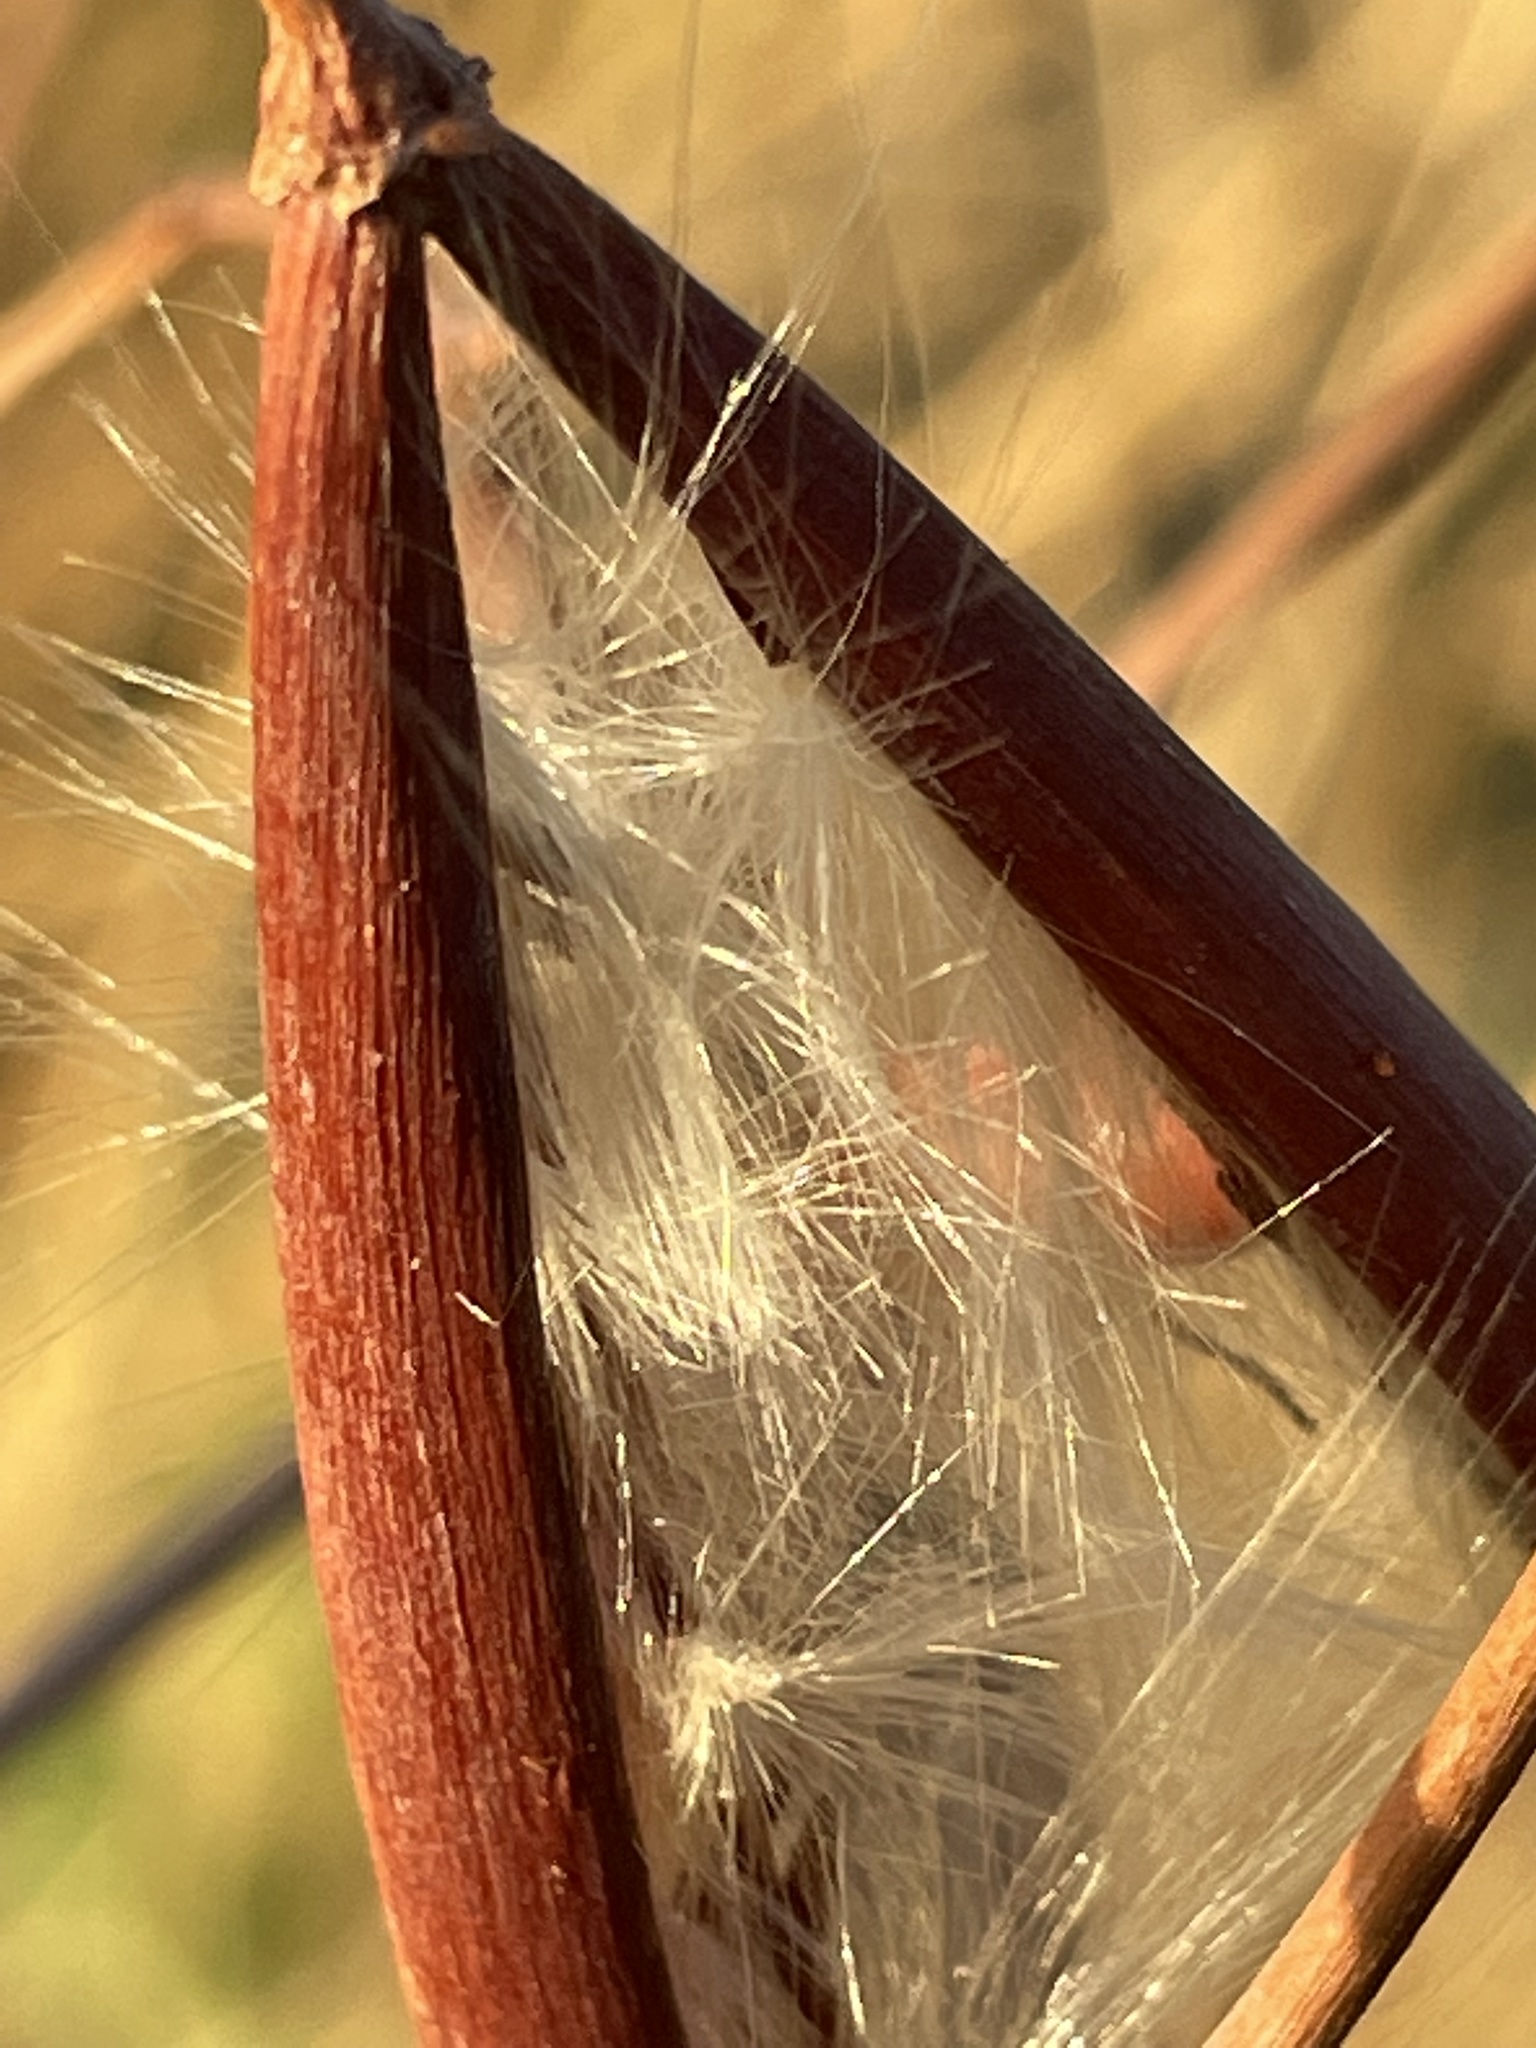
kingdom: Plantae
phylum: Tracheophyta
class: Magnoliopsida
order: Gentianales
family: Apocynaceae
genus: Apocynum
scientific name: Apocynum cannabinum
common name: Hemp dogbane
